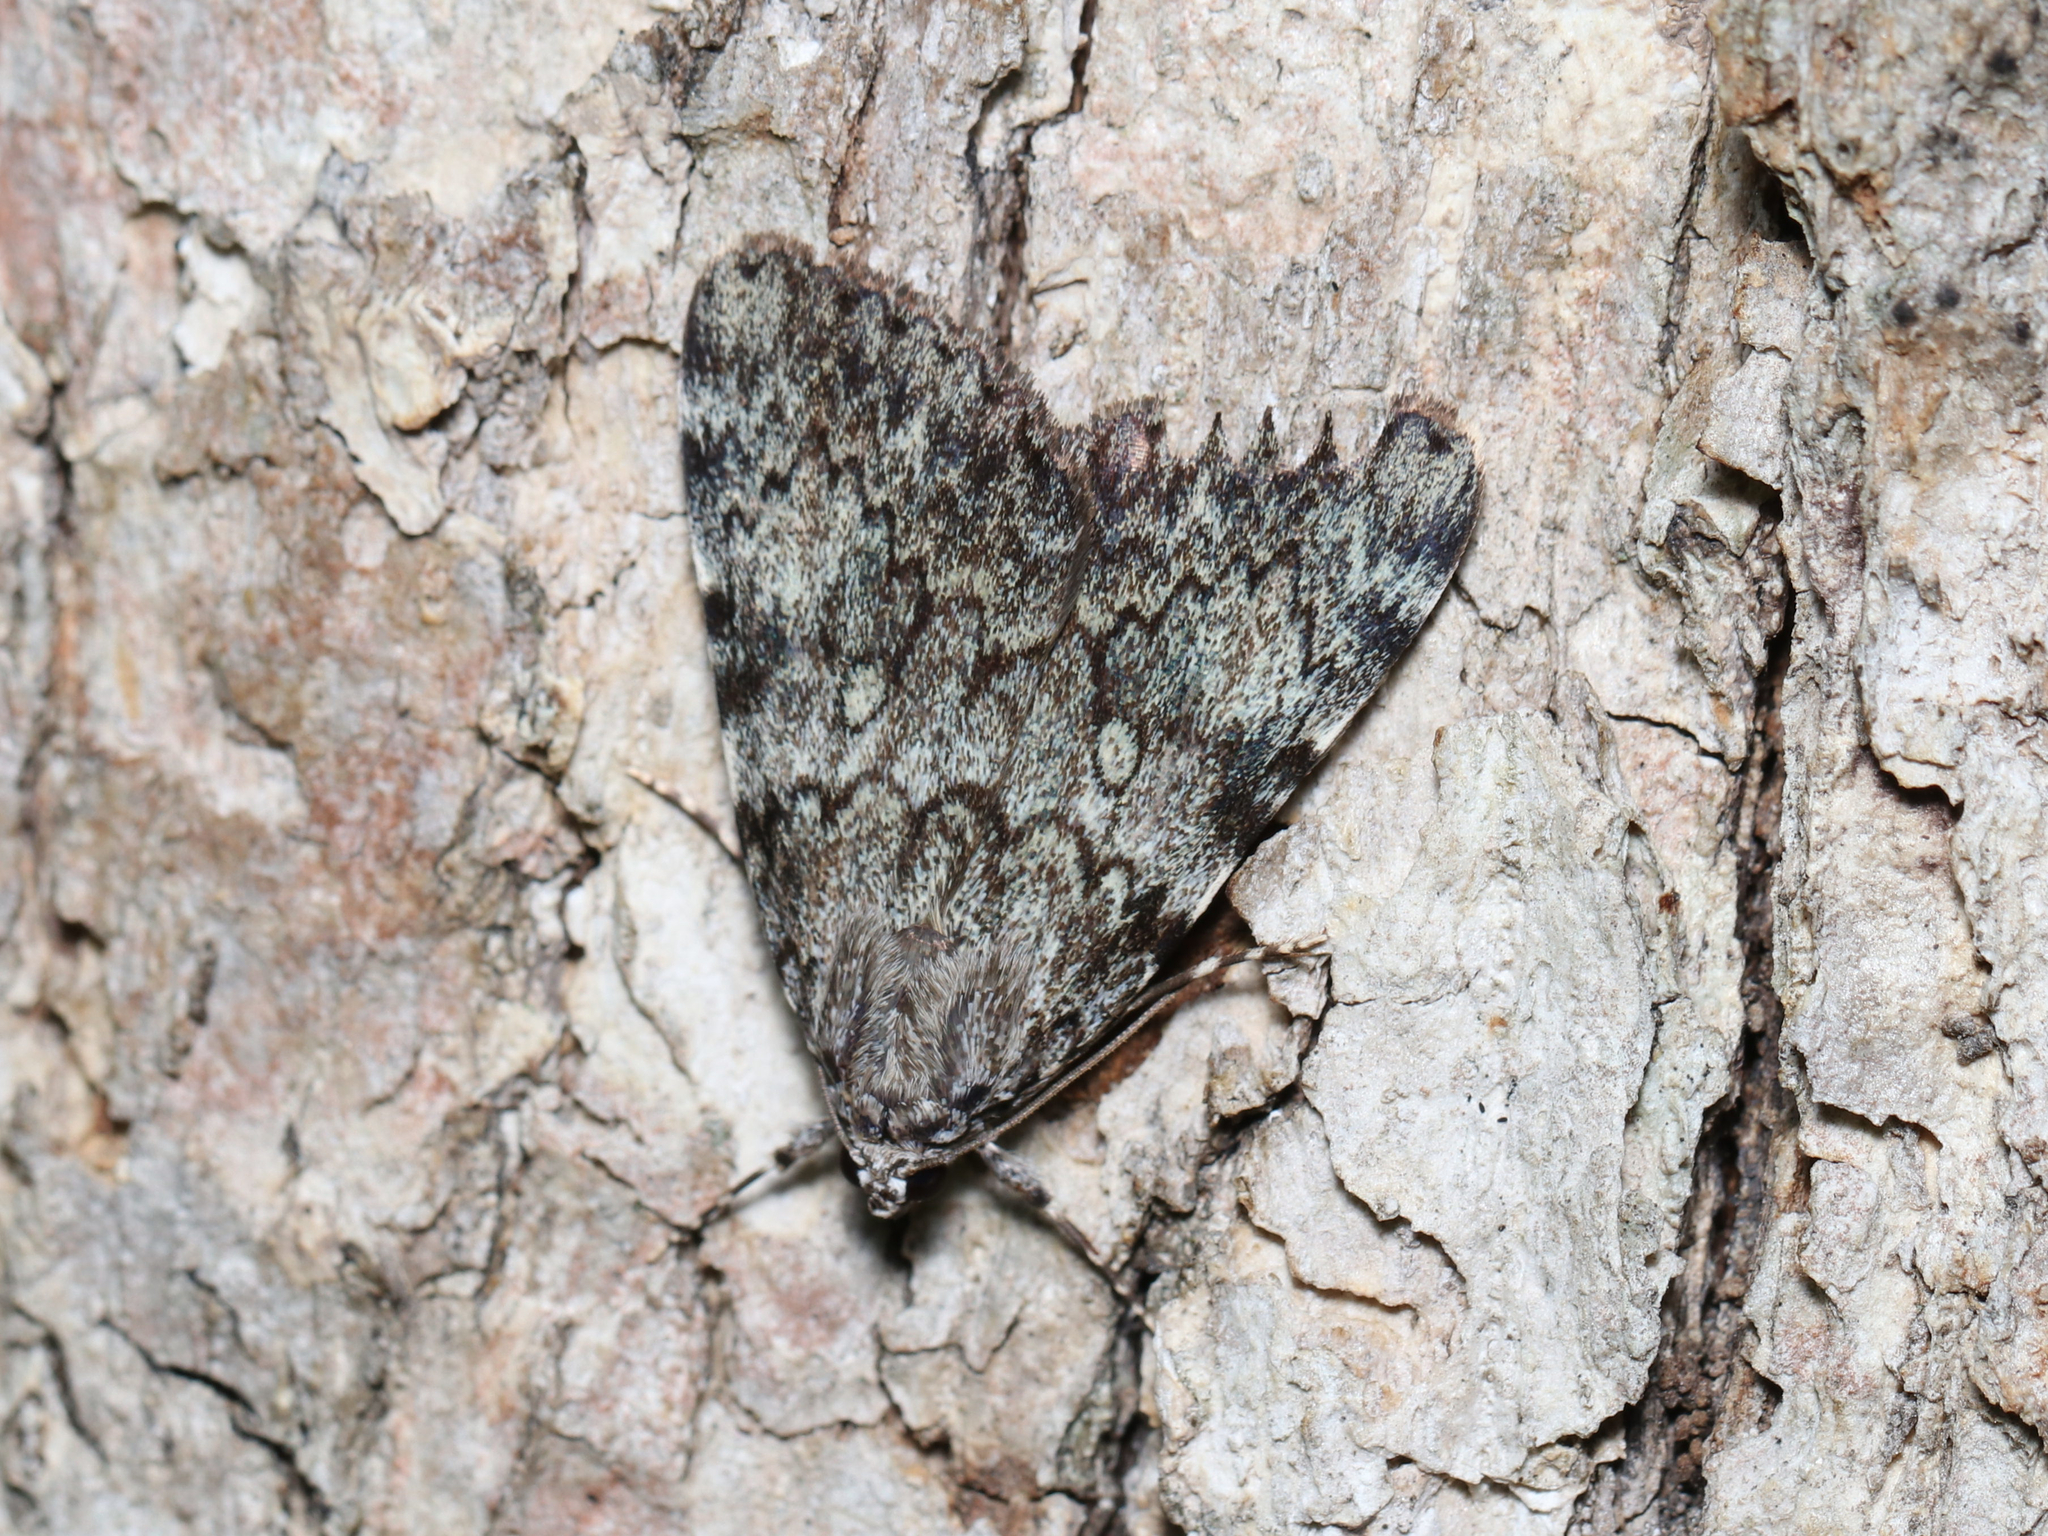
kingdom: Animalia
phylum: Arthropoda
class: Insecta
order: Lepidoptera
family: Erebidae
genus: Catocala
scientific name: Catocala lineella
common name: Little lined underwing
